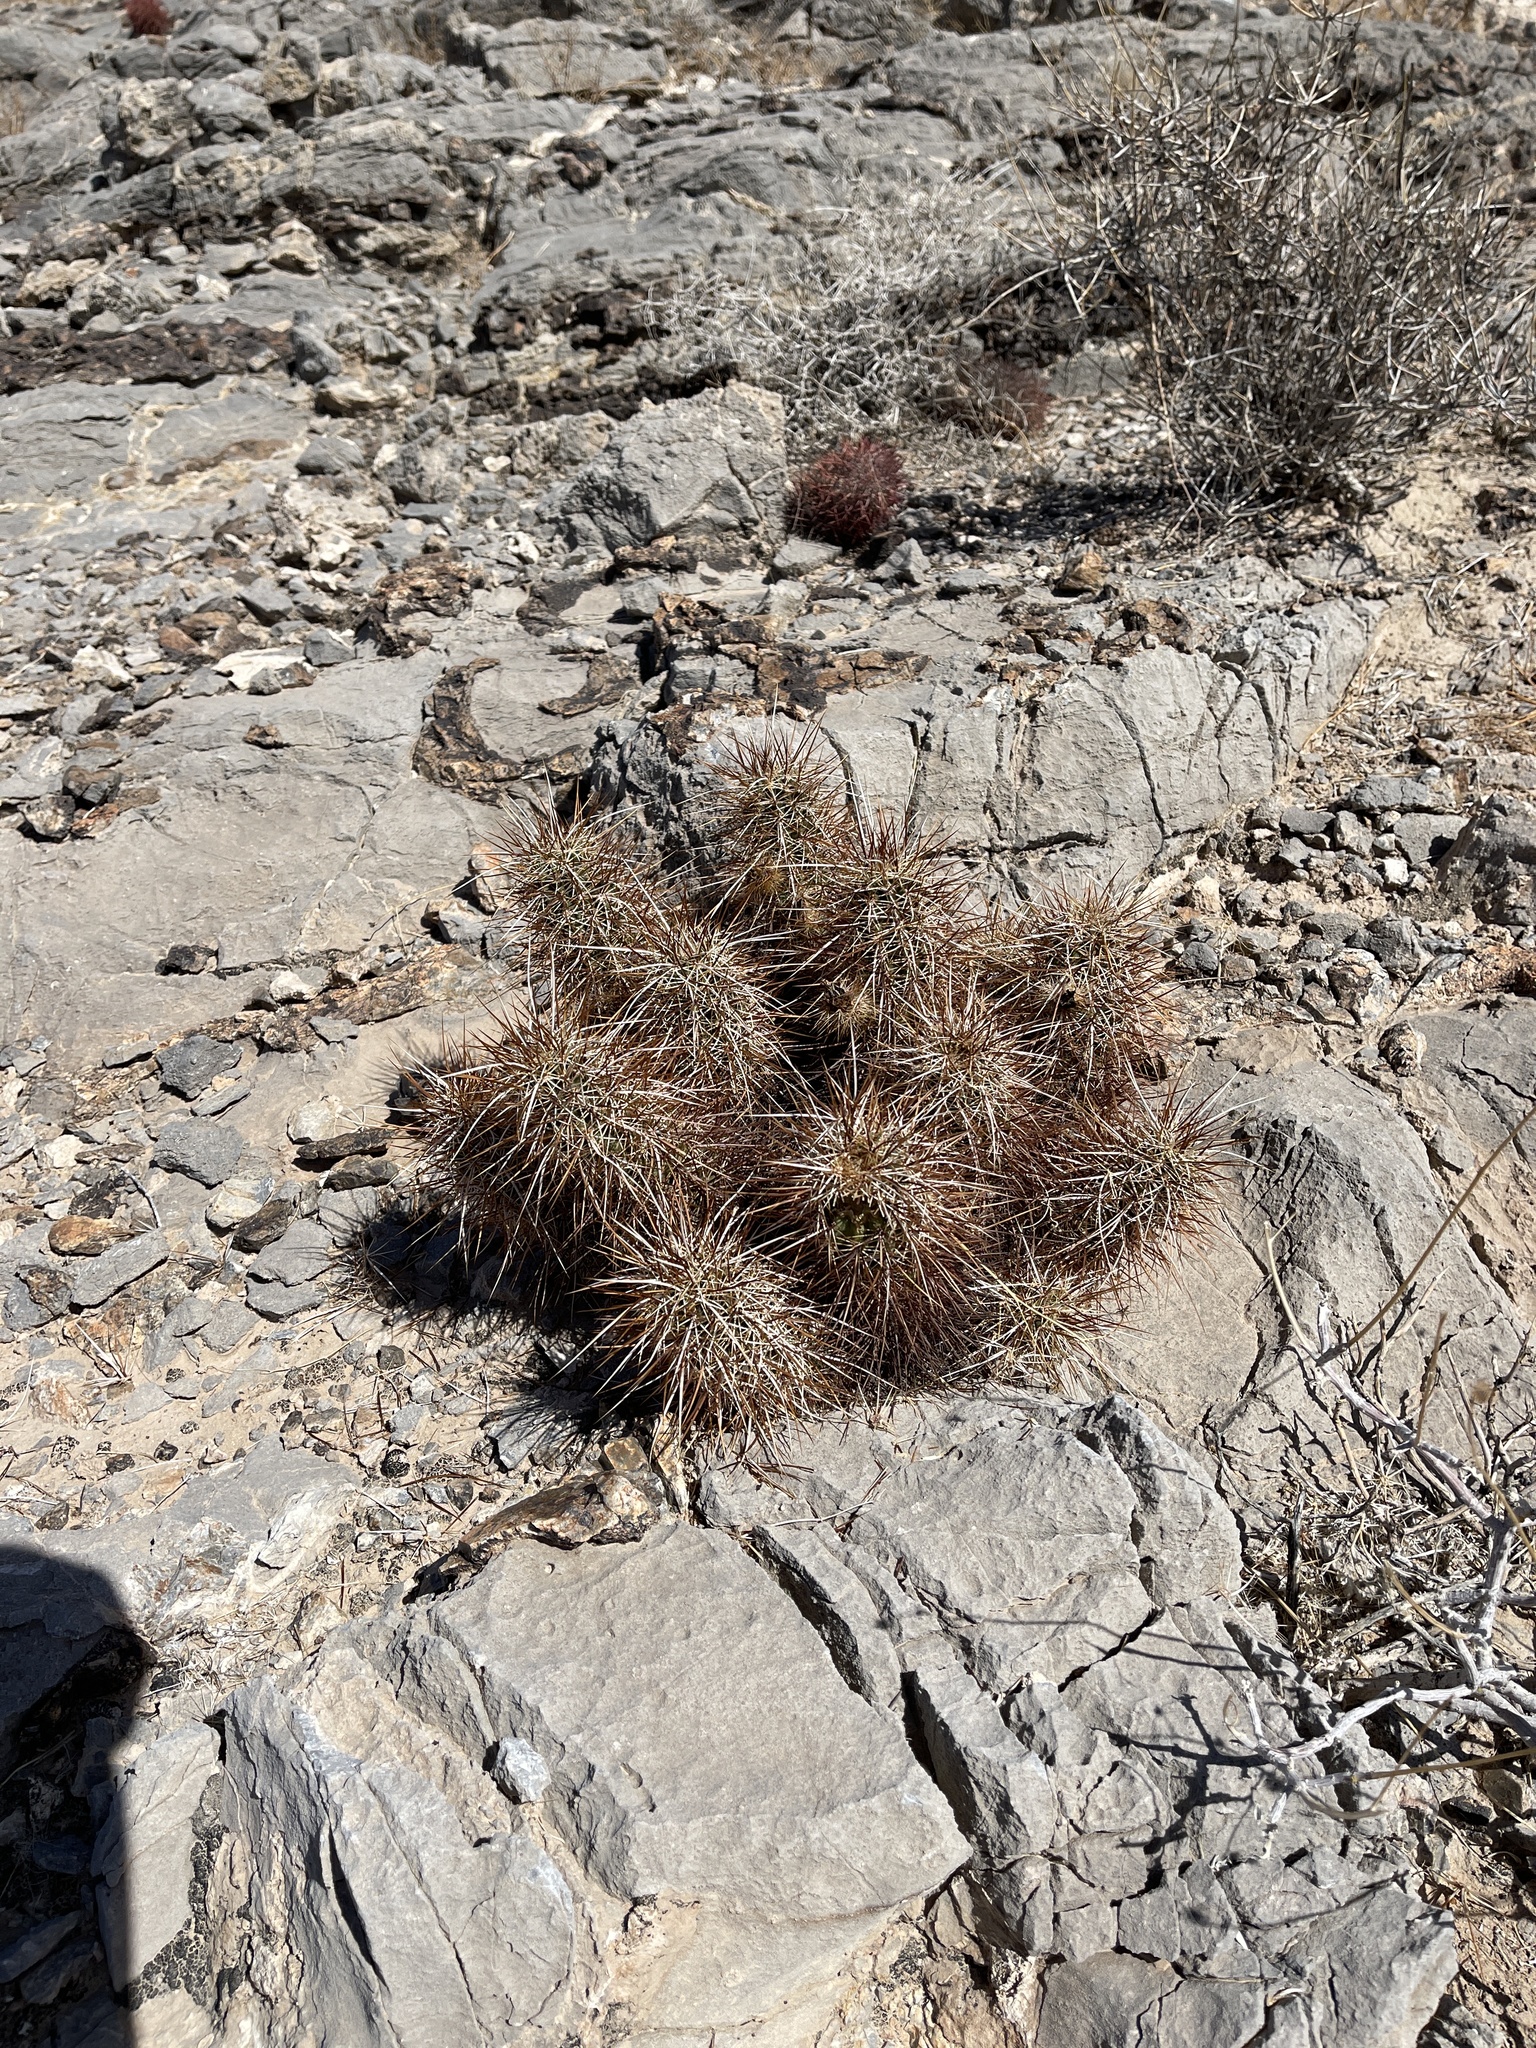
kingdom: Plantae
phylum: Tracheophyta
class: Magnoliopsida
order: Caryophyllales
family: Cactaceae
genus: Echinocereus
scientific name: Echinocereus engelmannii
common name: Engelmann's hedgehog cactus
